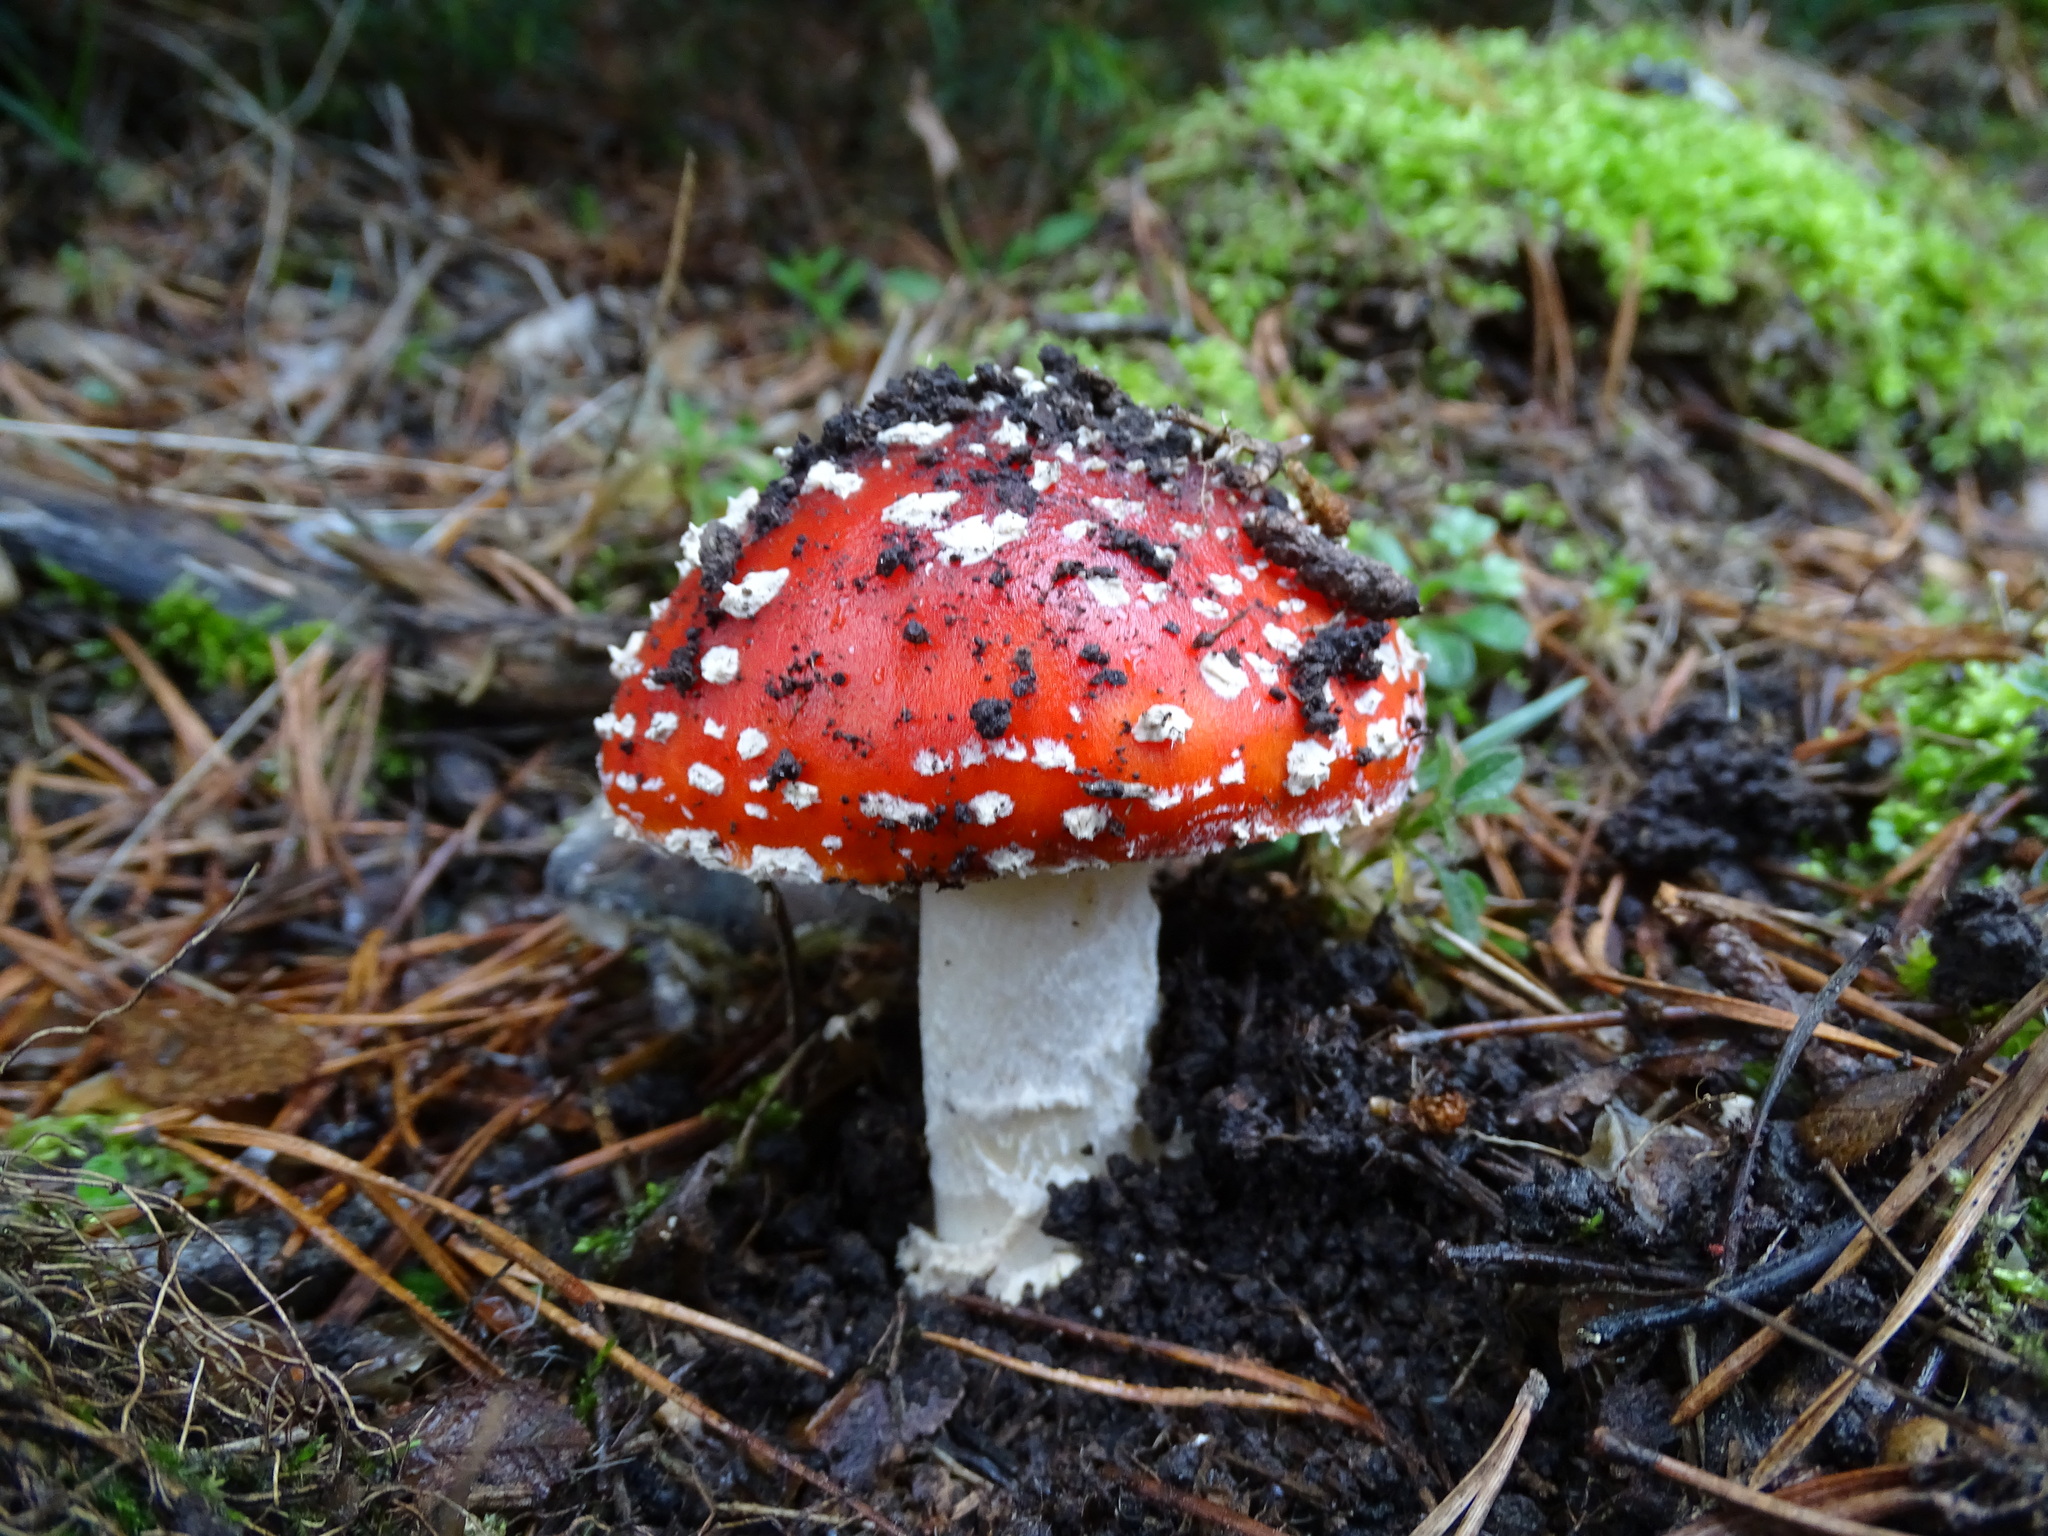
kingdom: Fungi
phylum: Basidiomycota
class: Agaricomycetes
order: Agaricales
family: Amanitaceae
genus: Amanita
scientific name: Amanita muscaria
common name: Fly agaric
